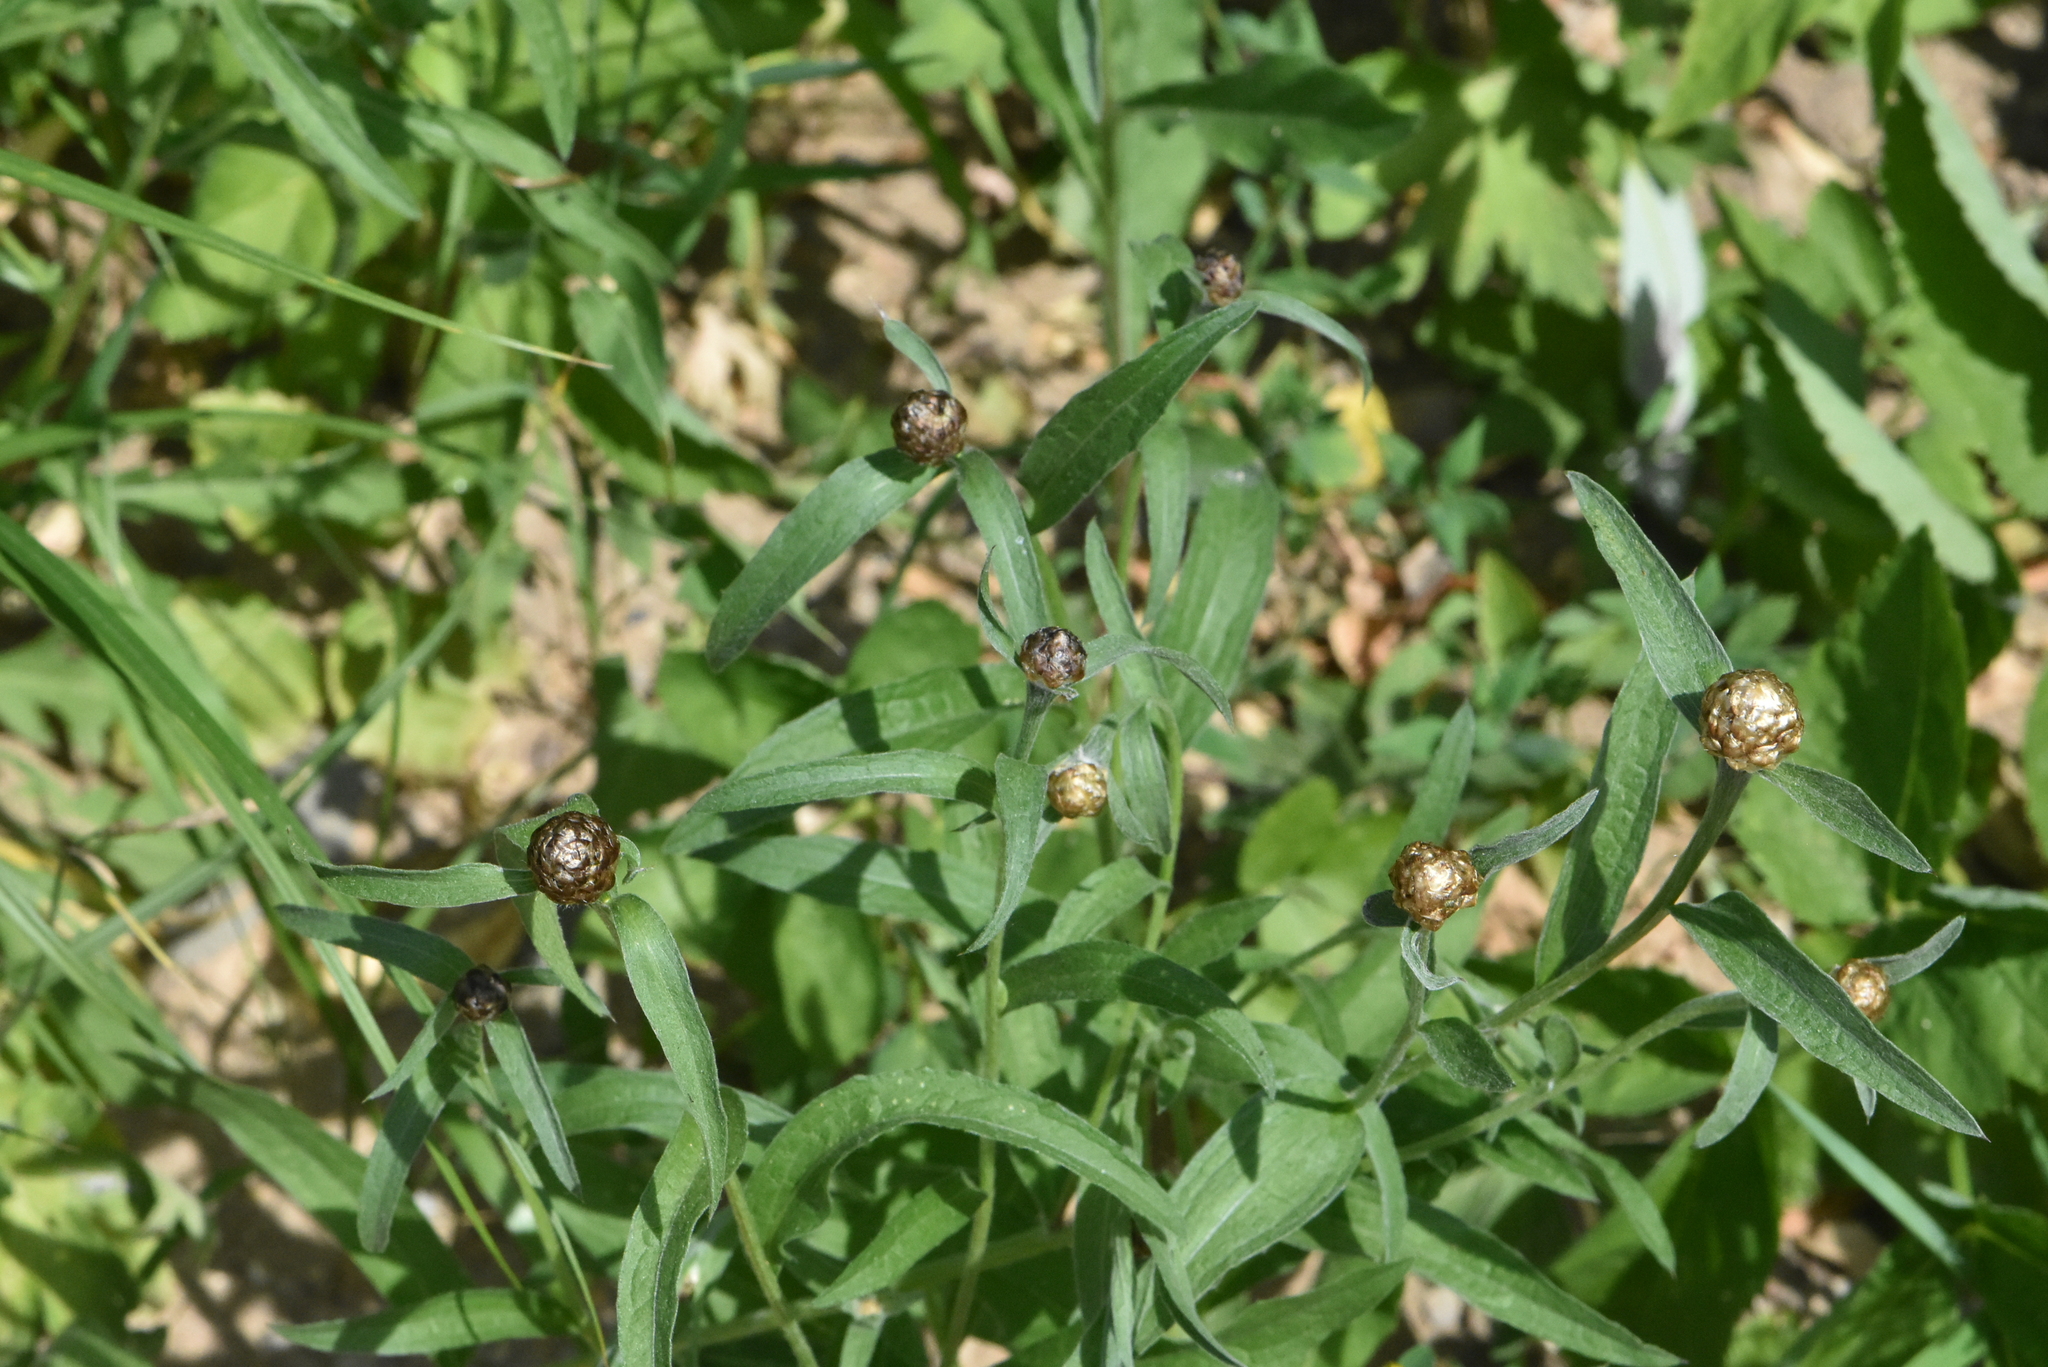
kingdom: Plantae
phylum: Tracheophyta
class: Magnoliopsida
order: Asterales
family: Asteraceae
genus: Centaurea
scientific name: Centaurea jacea
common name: Brown knapweed
